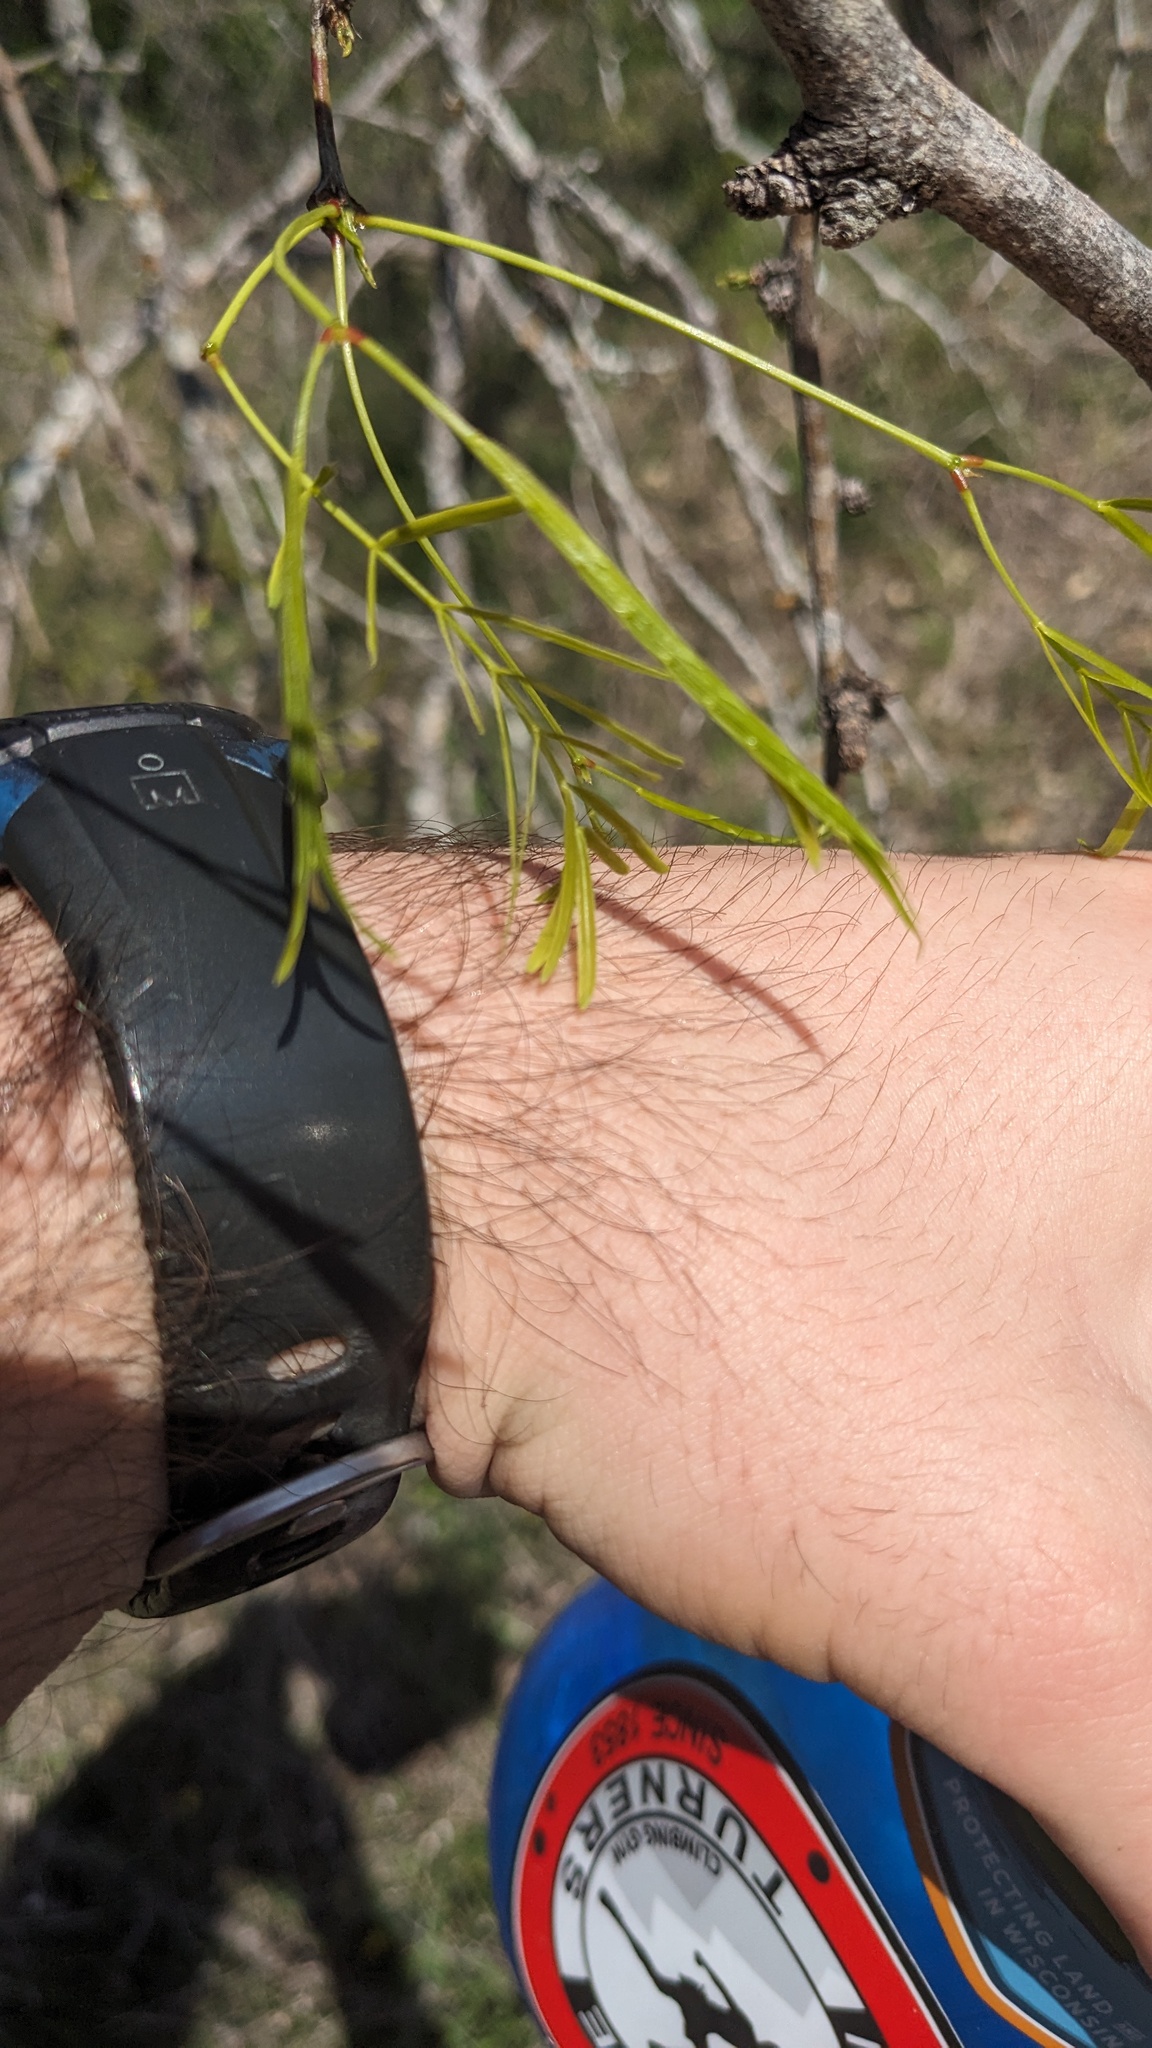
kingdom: Plantae
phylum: Tracheophyta
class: Magnoliopsida
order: Fabales
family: Fabaceae
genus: Prosopis
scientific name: Prosopis glandulosa
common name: Honey mesquite
